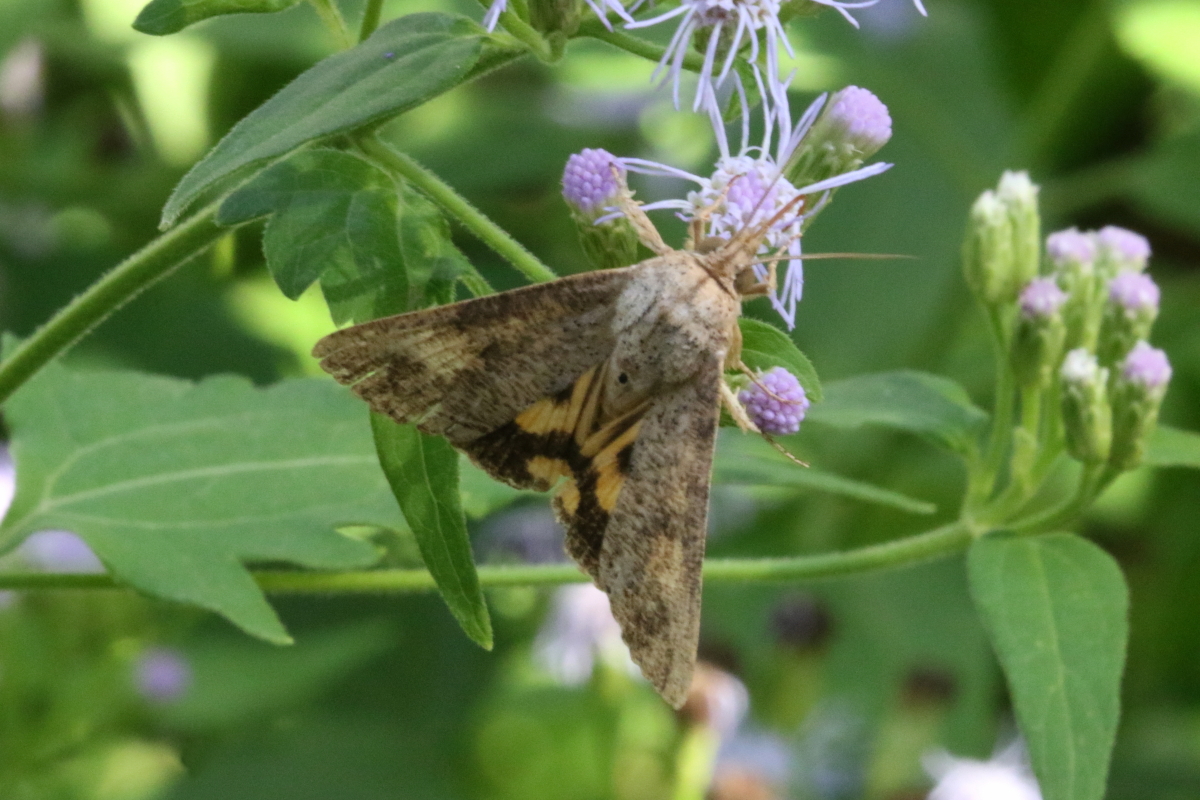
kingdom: Animalia
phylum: Arthropoda
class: Insecta
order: Lepidoptera
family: Erebidae
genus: Hypocala
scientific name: Hypocala andremona
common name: Hypocala moth
